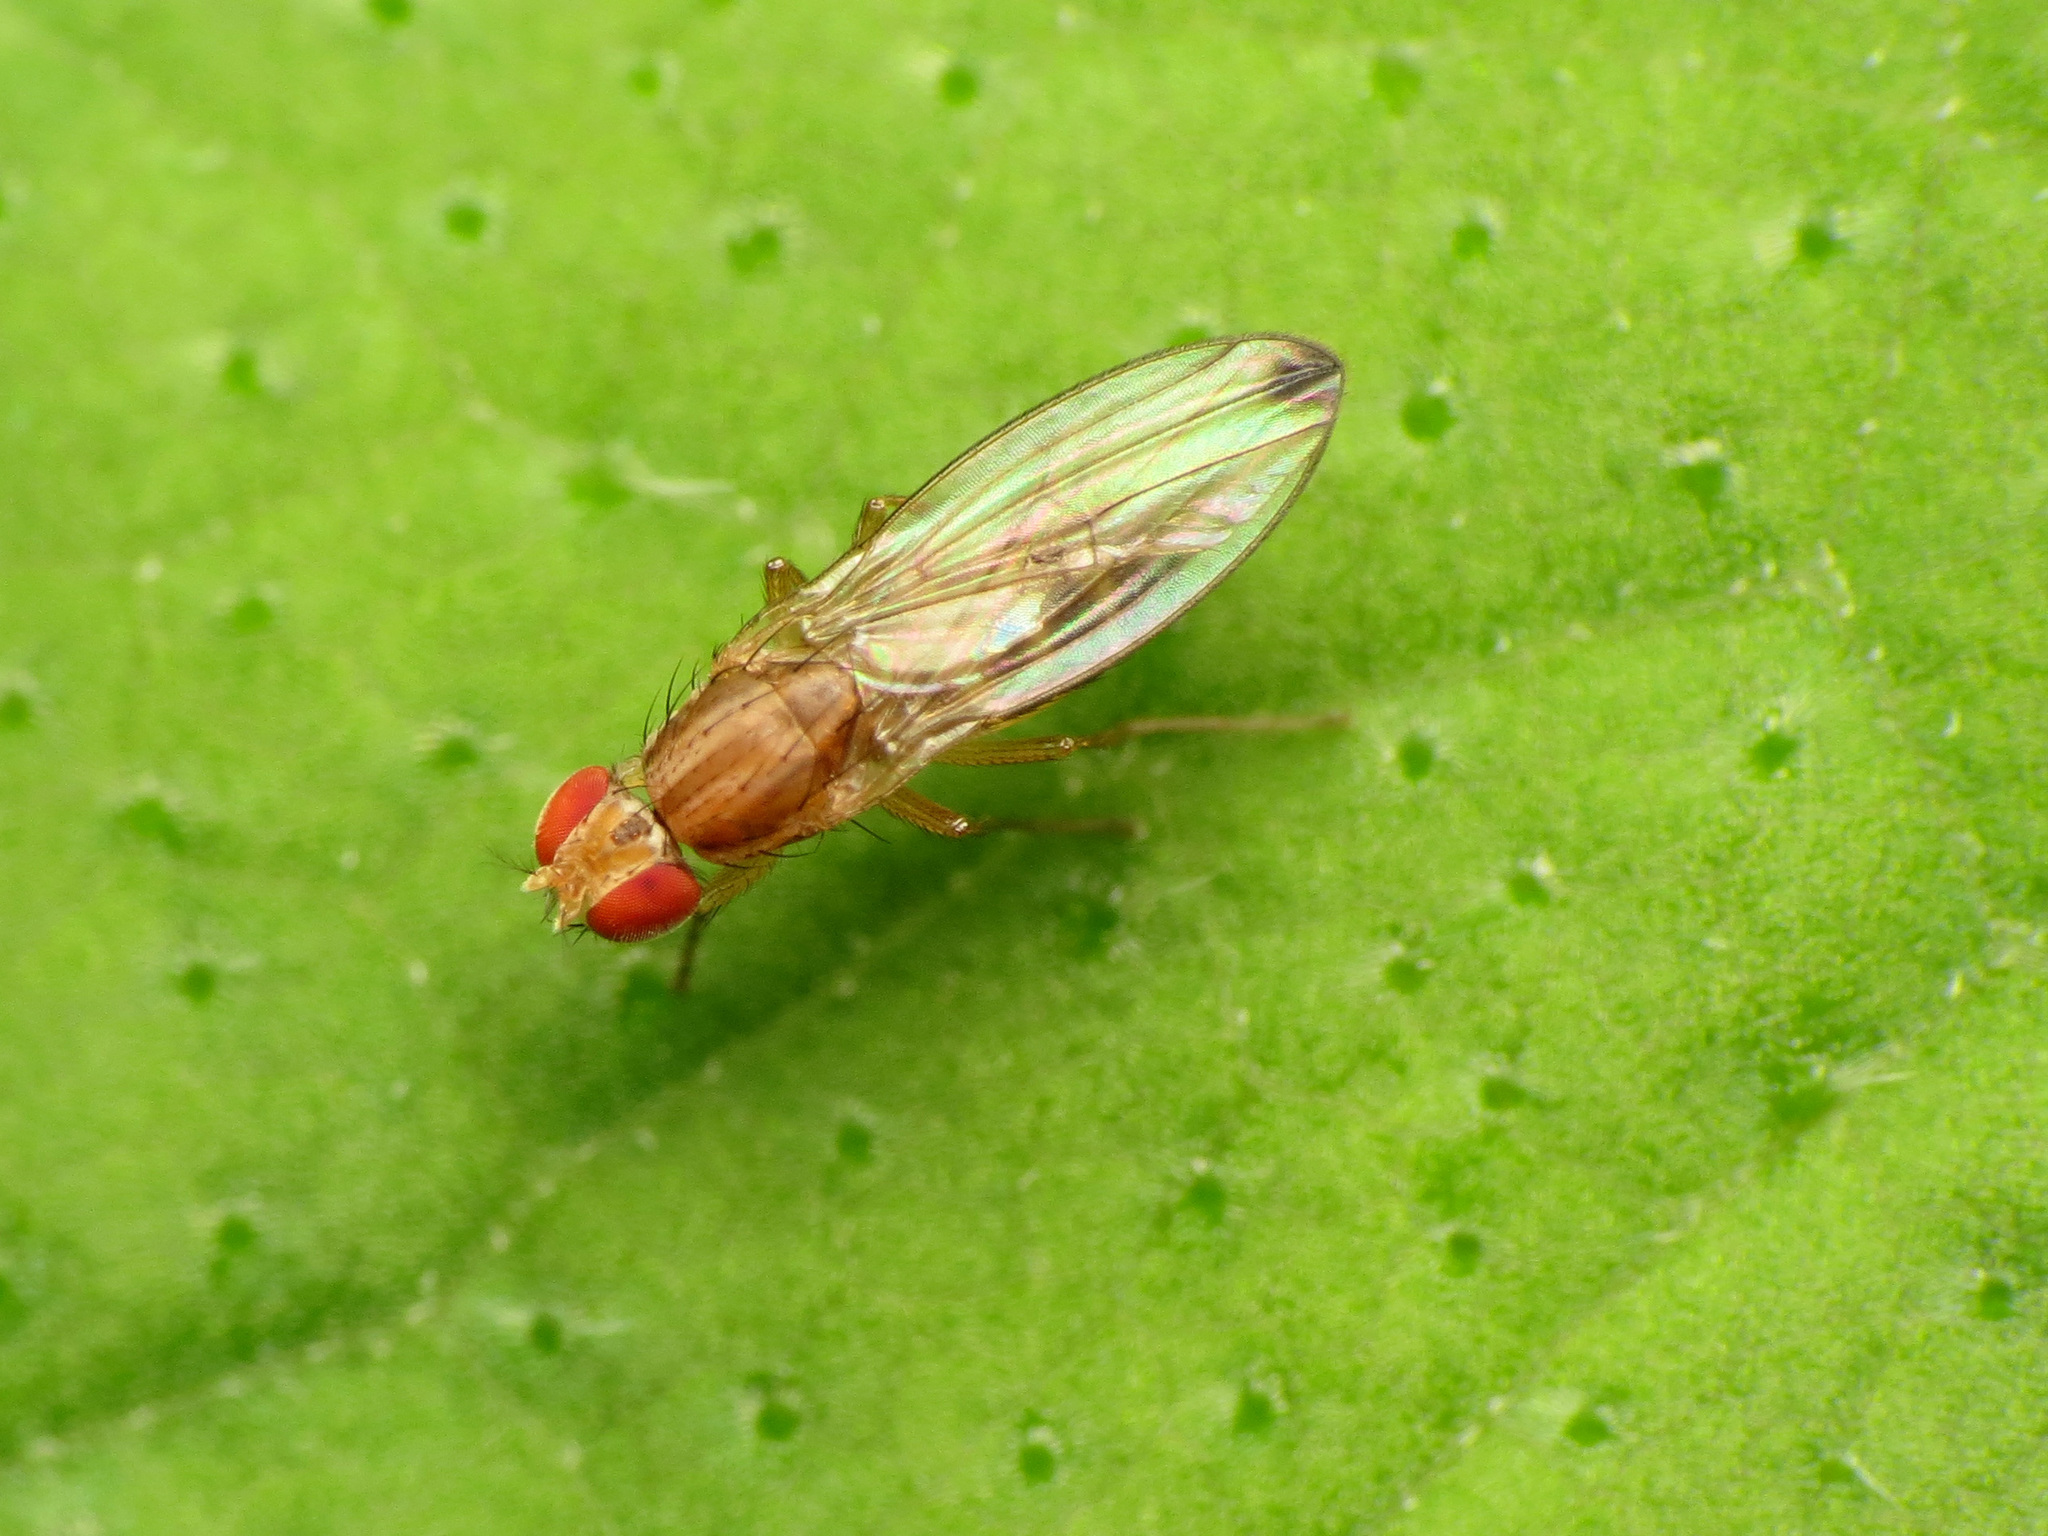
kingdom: Animalia
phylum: Arthropoda
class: Insecta
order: Diptera
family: Drosophilidae
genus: Scaptomyza
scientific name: Scaptomyza adusta
